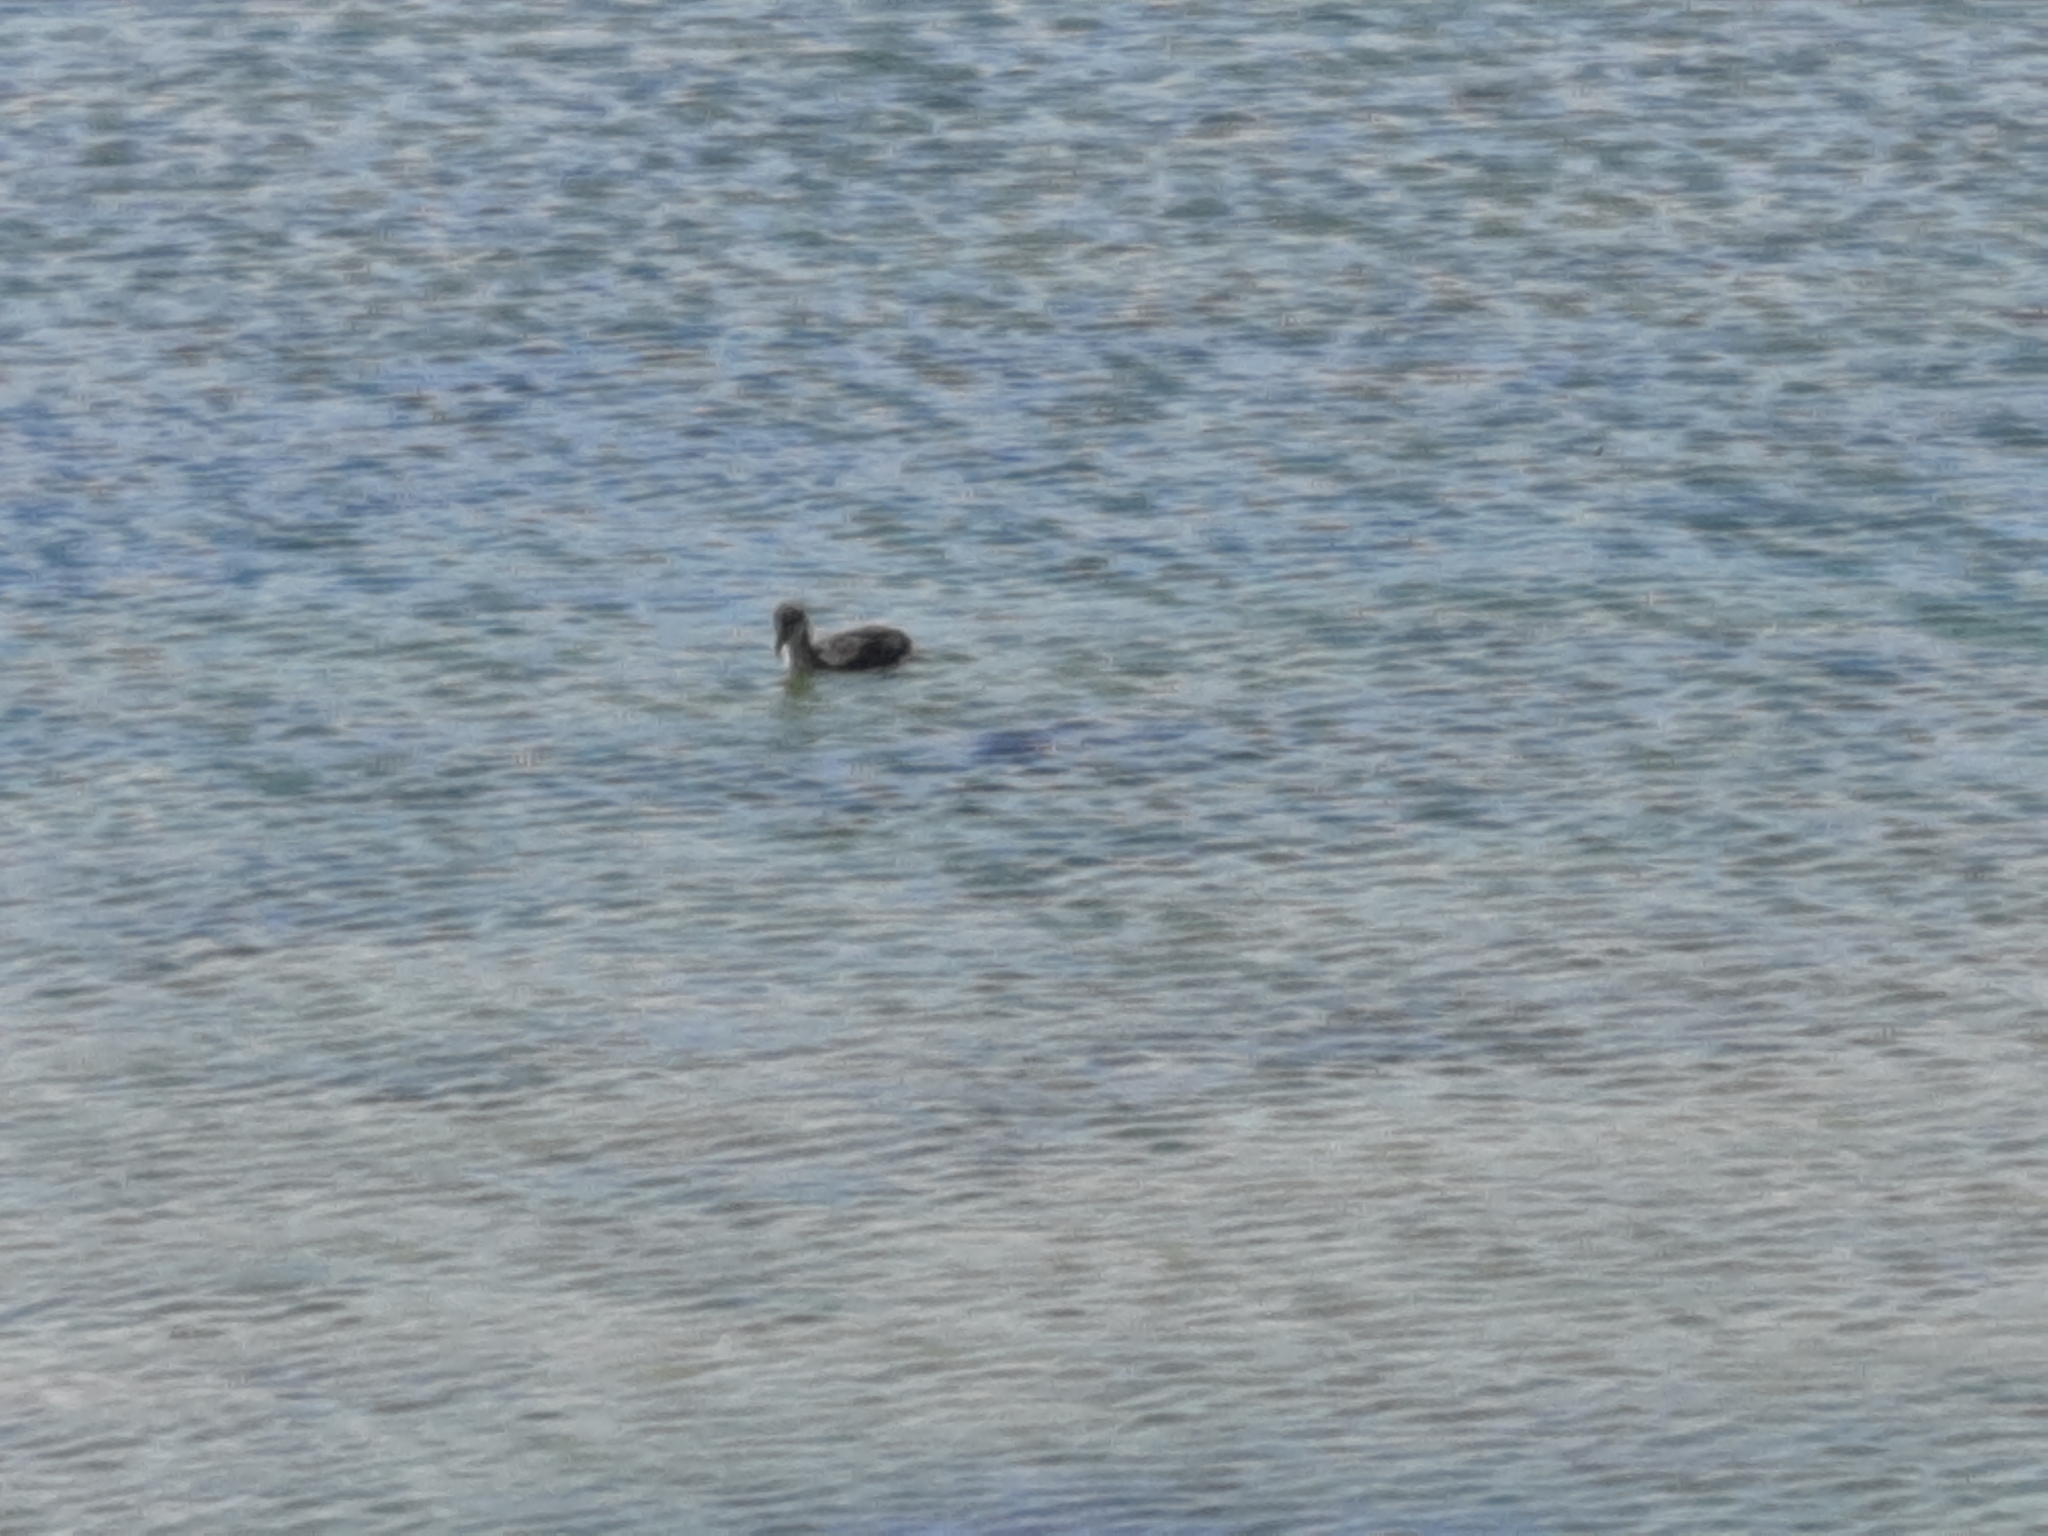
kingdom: Animalia
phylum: Chordata
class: Aves
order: Gruiformes
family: Rallidae
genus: Fulica
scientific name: Fulica atra
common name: Eurasian coot
